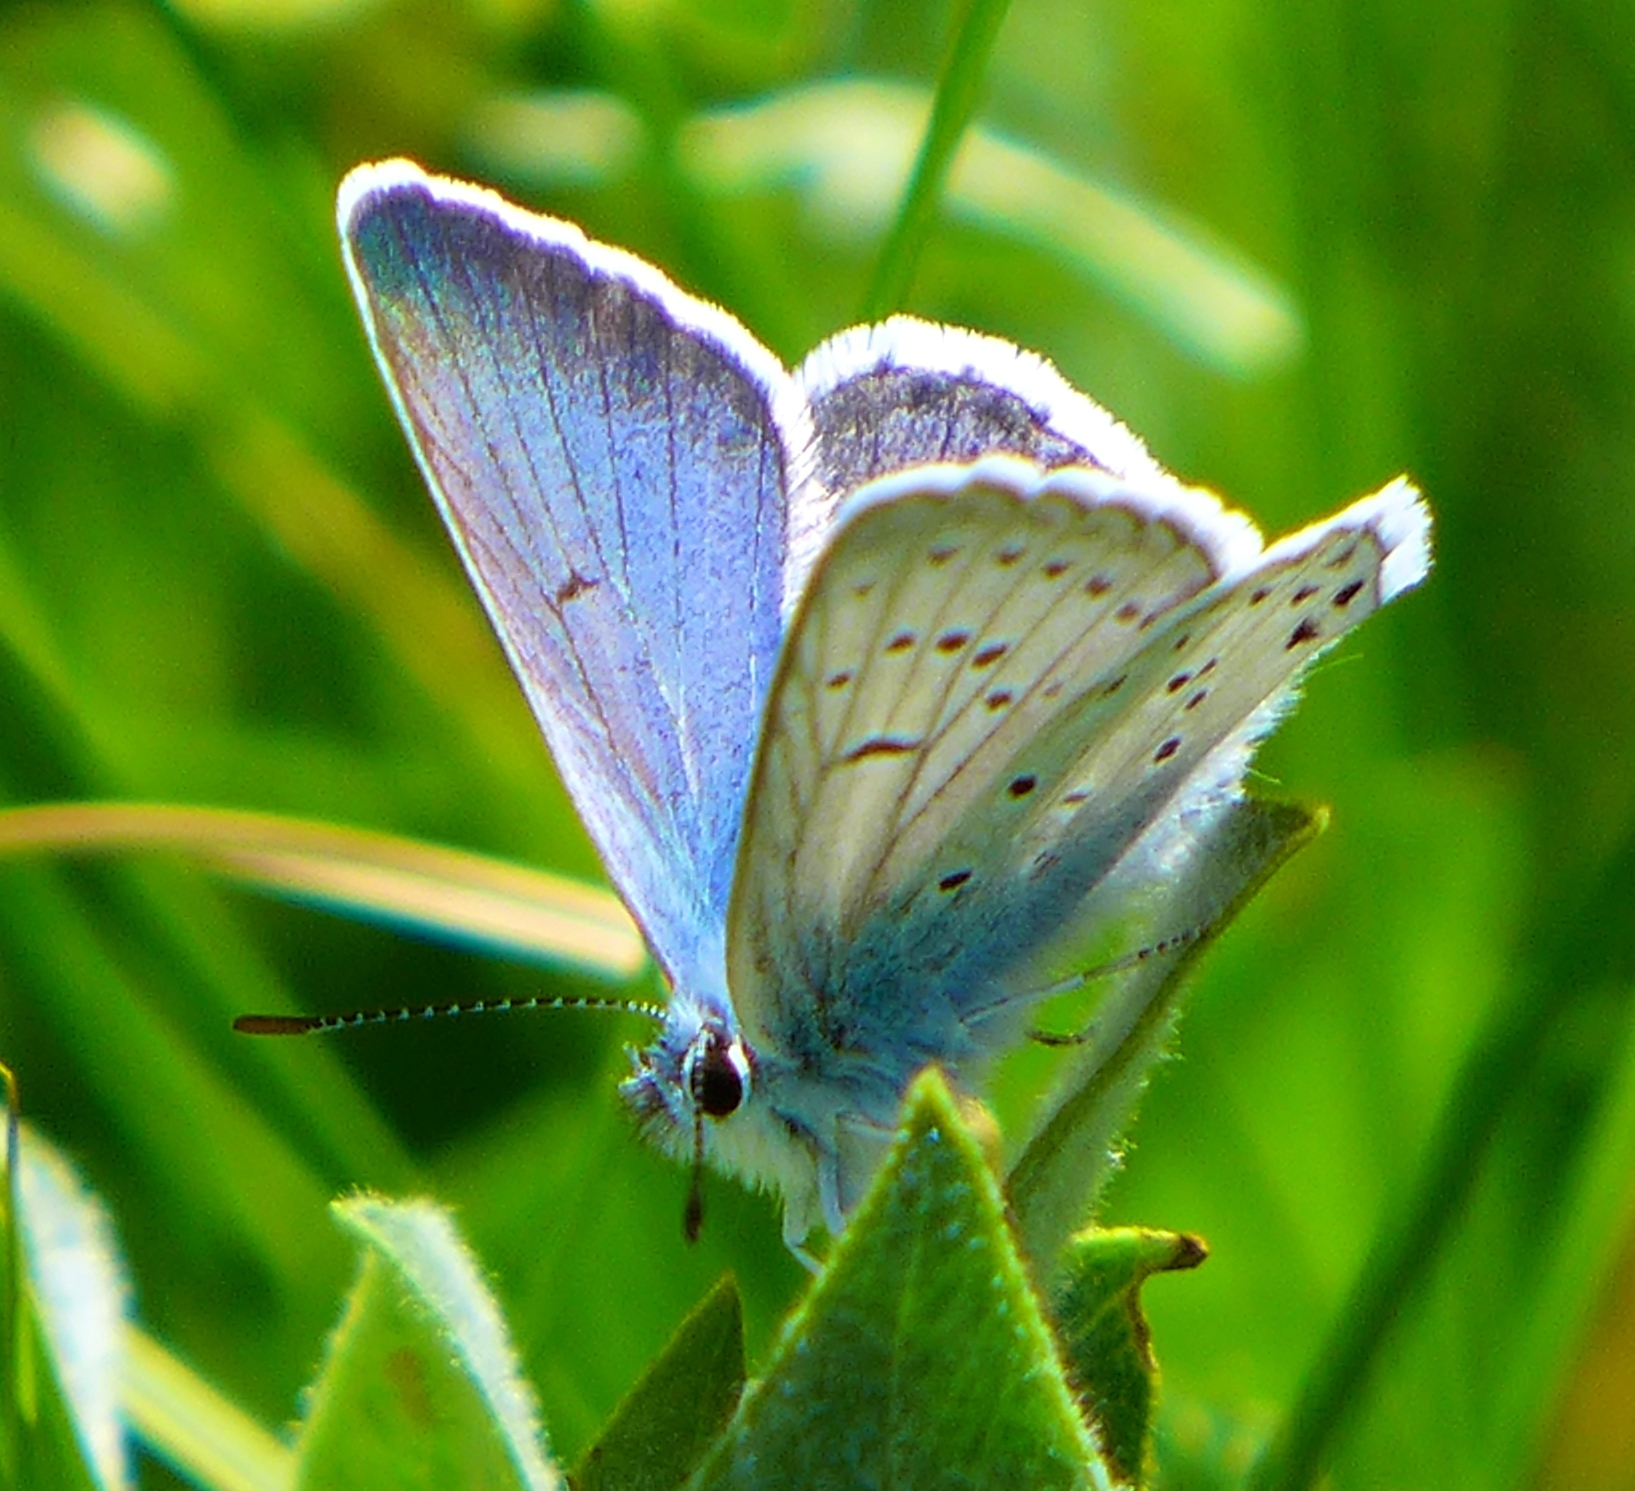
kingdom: Animalia
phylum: Arthropoda
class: Insecta
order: Lepidoptera
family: Lycaenidae
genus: Icaricia
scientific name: Icaricia saepiolus
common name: Greenish blue
